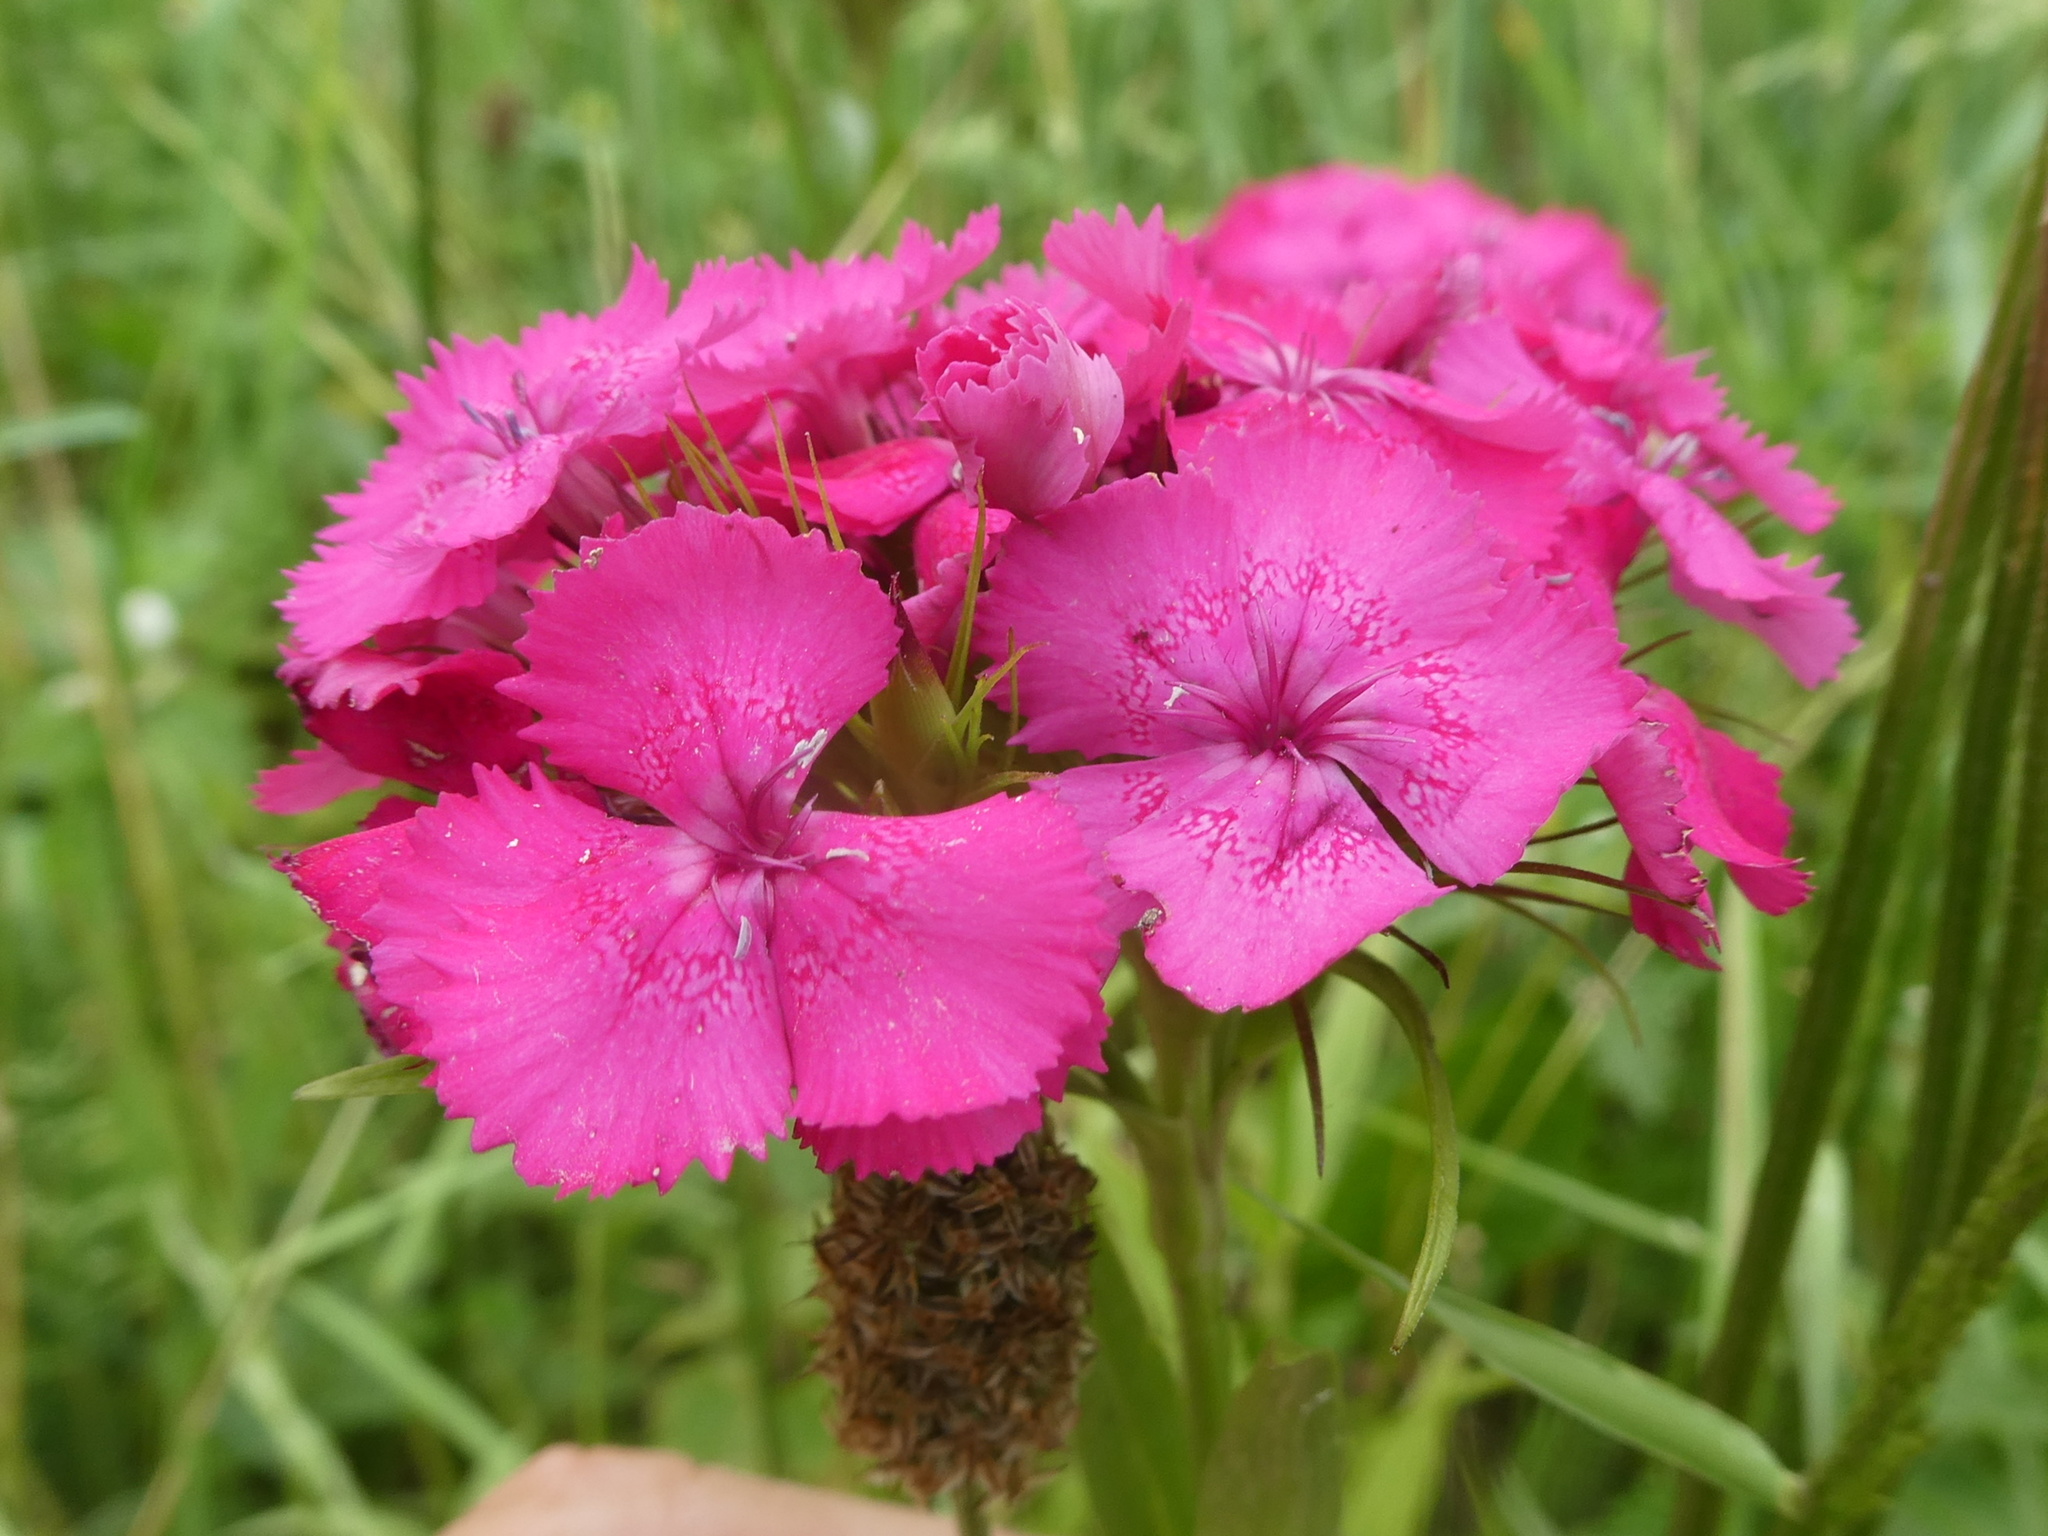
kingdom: Plantae
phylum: Tracheophyta
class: Magnoliopsida
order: Caryophyllales
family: Caryophyllaceae
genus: Dianthus
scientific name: Dianthus barbatus
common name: Sweet-william
